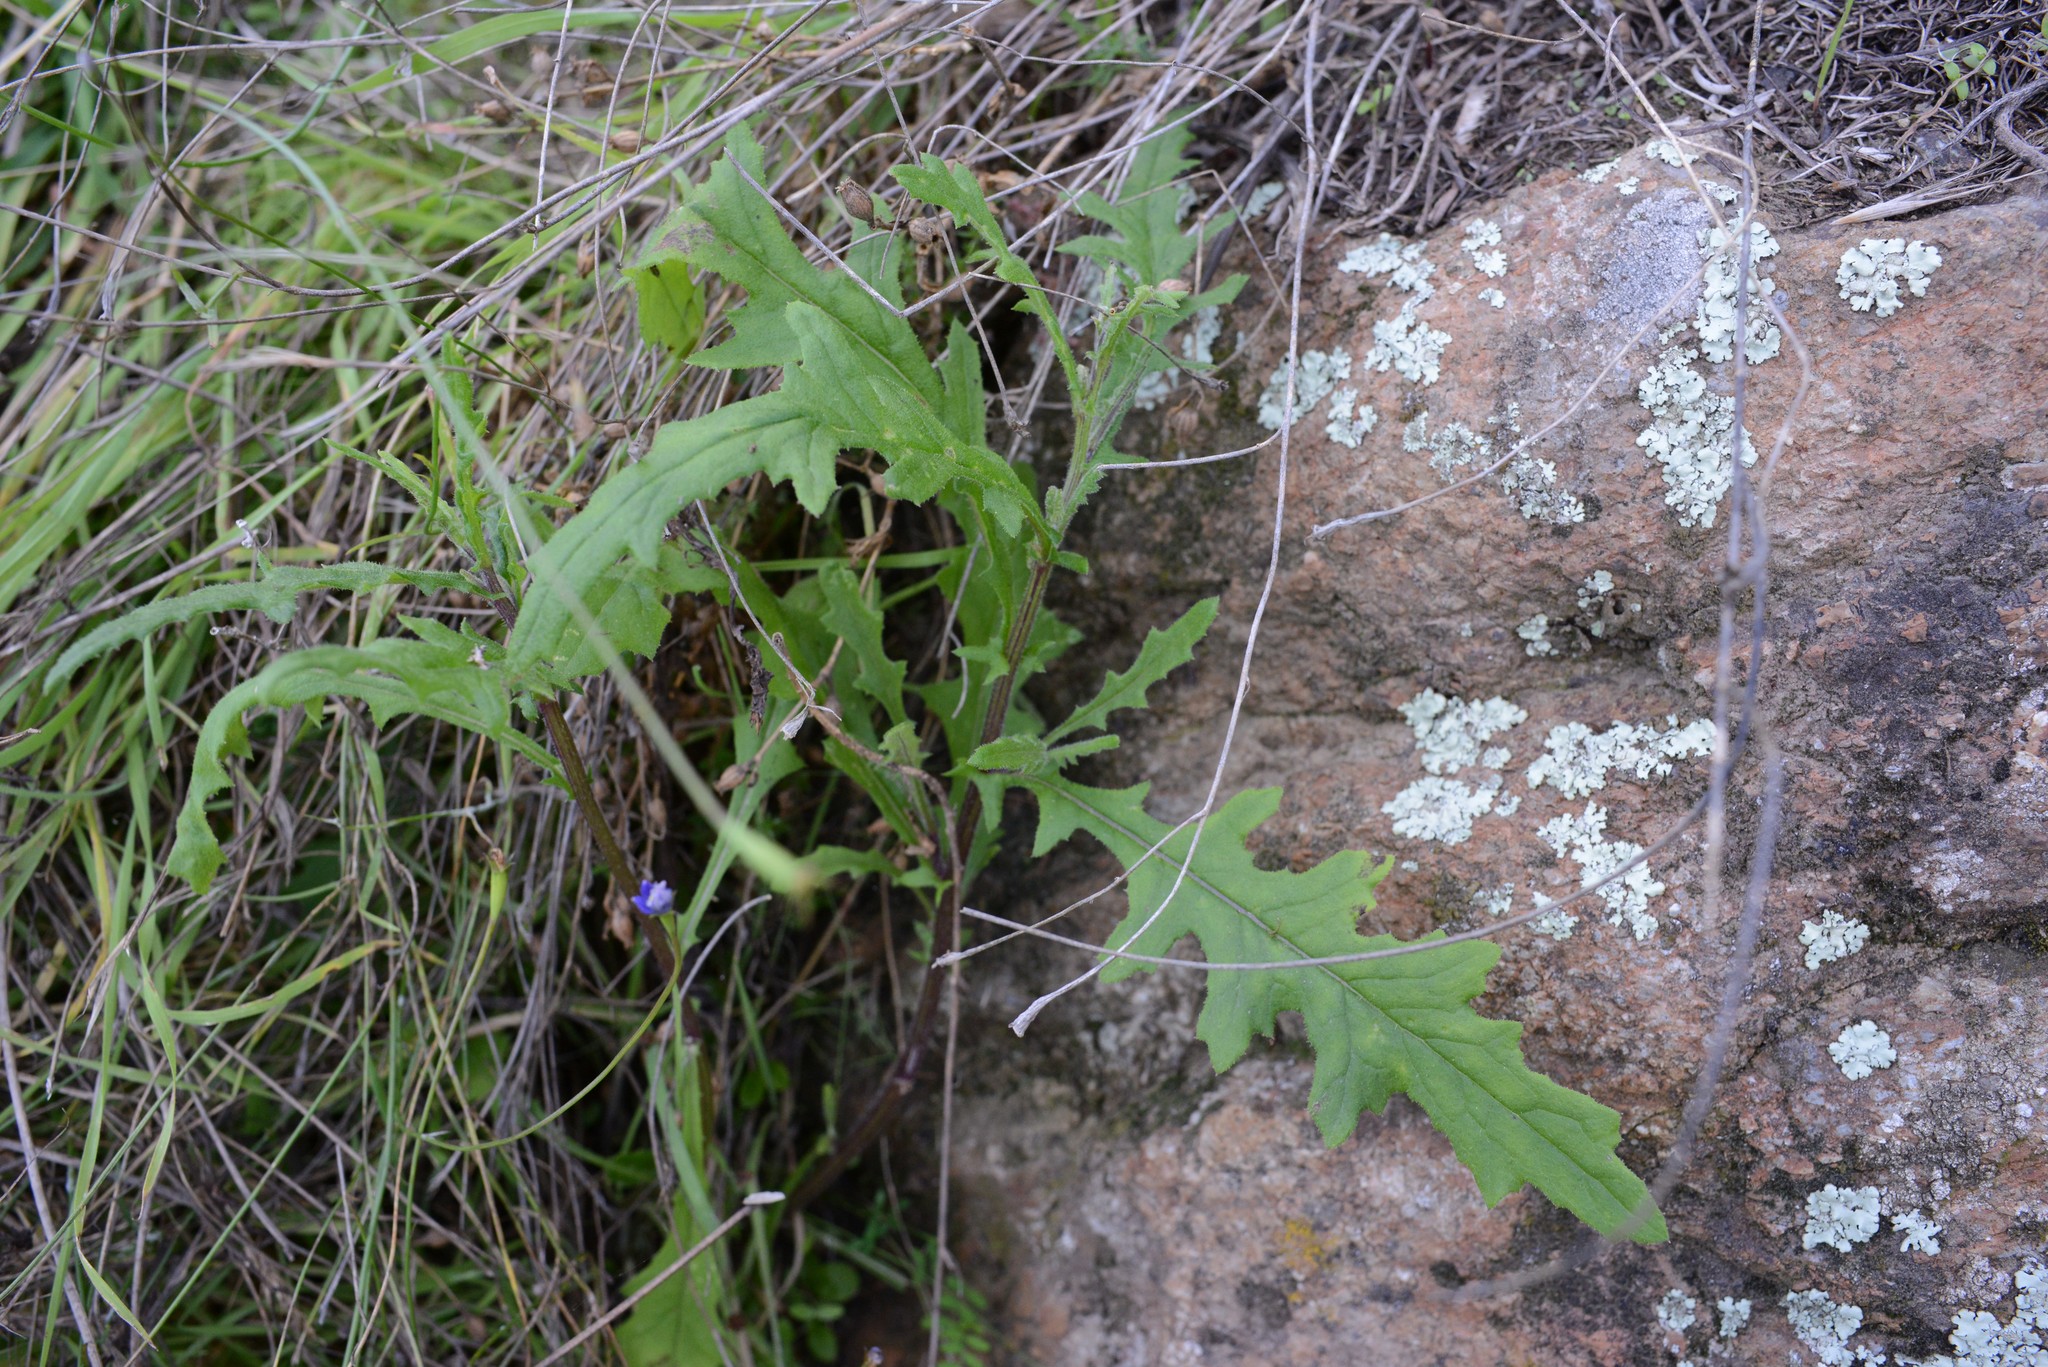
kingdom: Plantae
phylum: Tracheophyta
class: Magnoliopsida
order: Asterales
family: Asteraceae
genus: Senecio
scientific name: Senecio hispidulus
